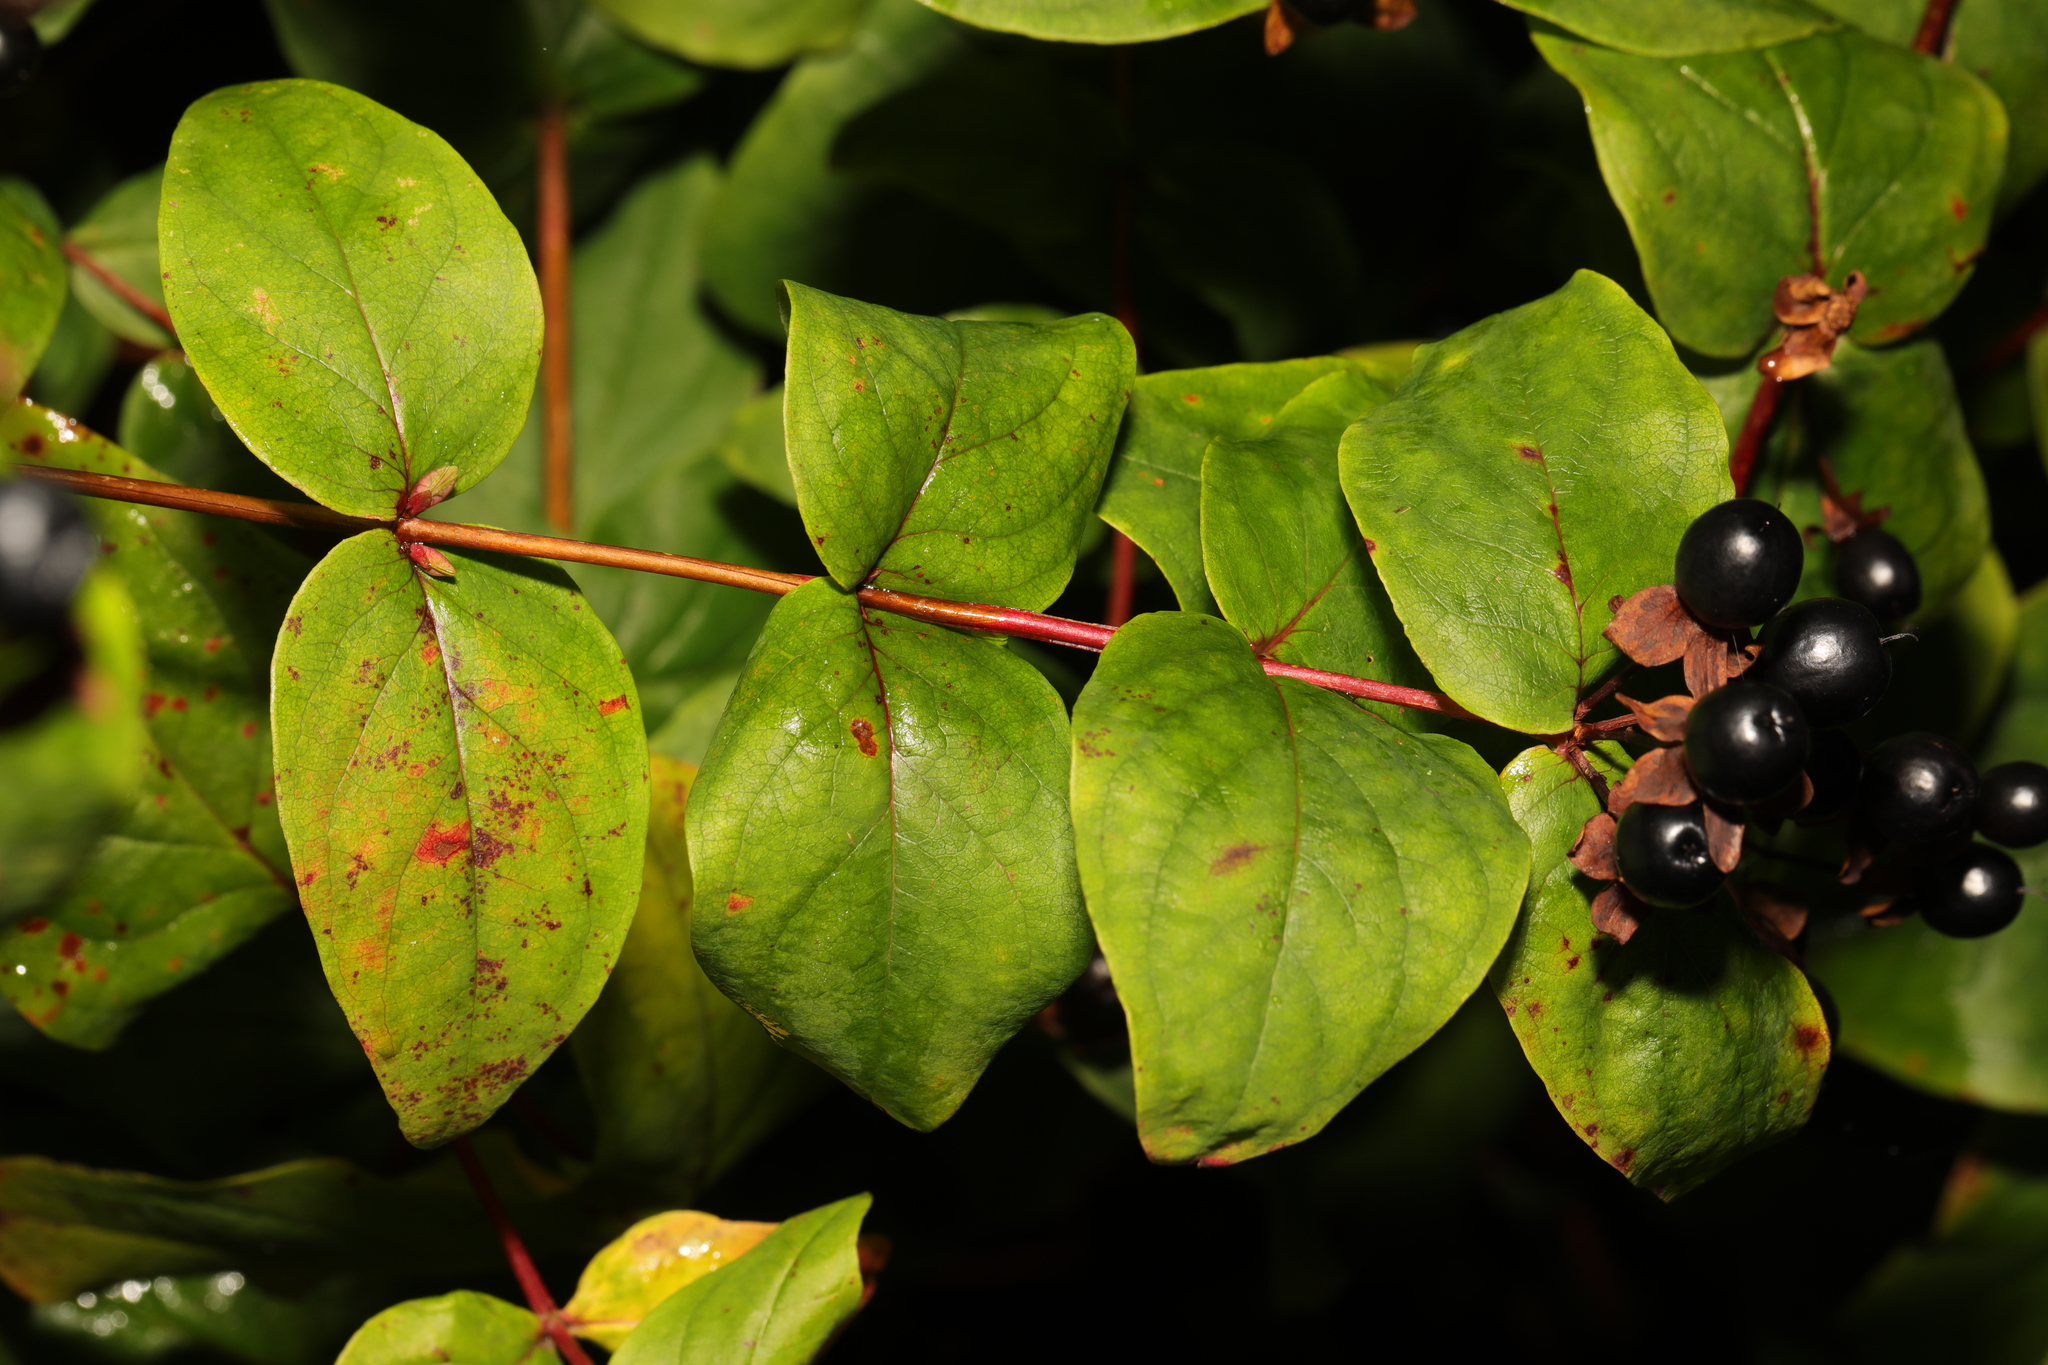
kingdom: Plantae
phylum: Tracheophyta
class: Magnoliopsida
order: Malpighiales
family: Hypericaceae
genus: Hypericum
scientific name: Hypericum androsaemum
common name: Sweet-amber
